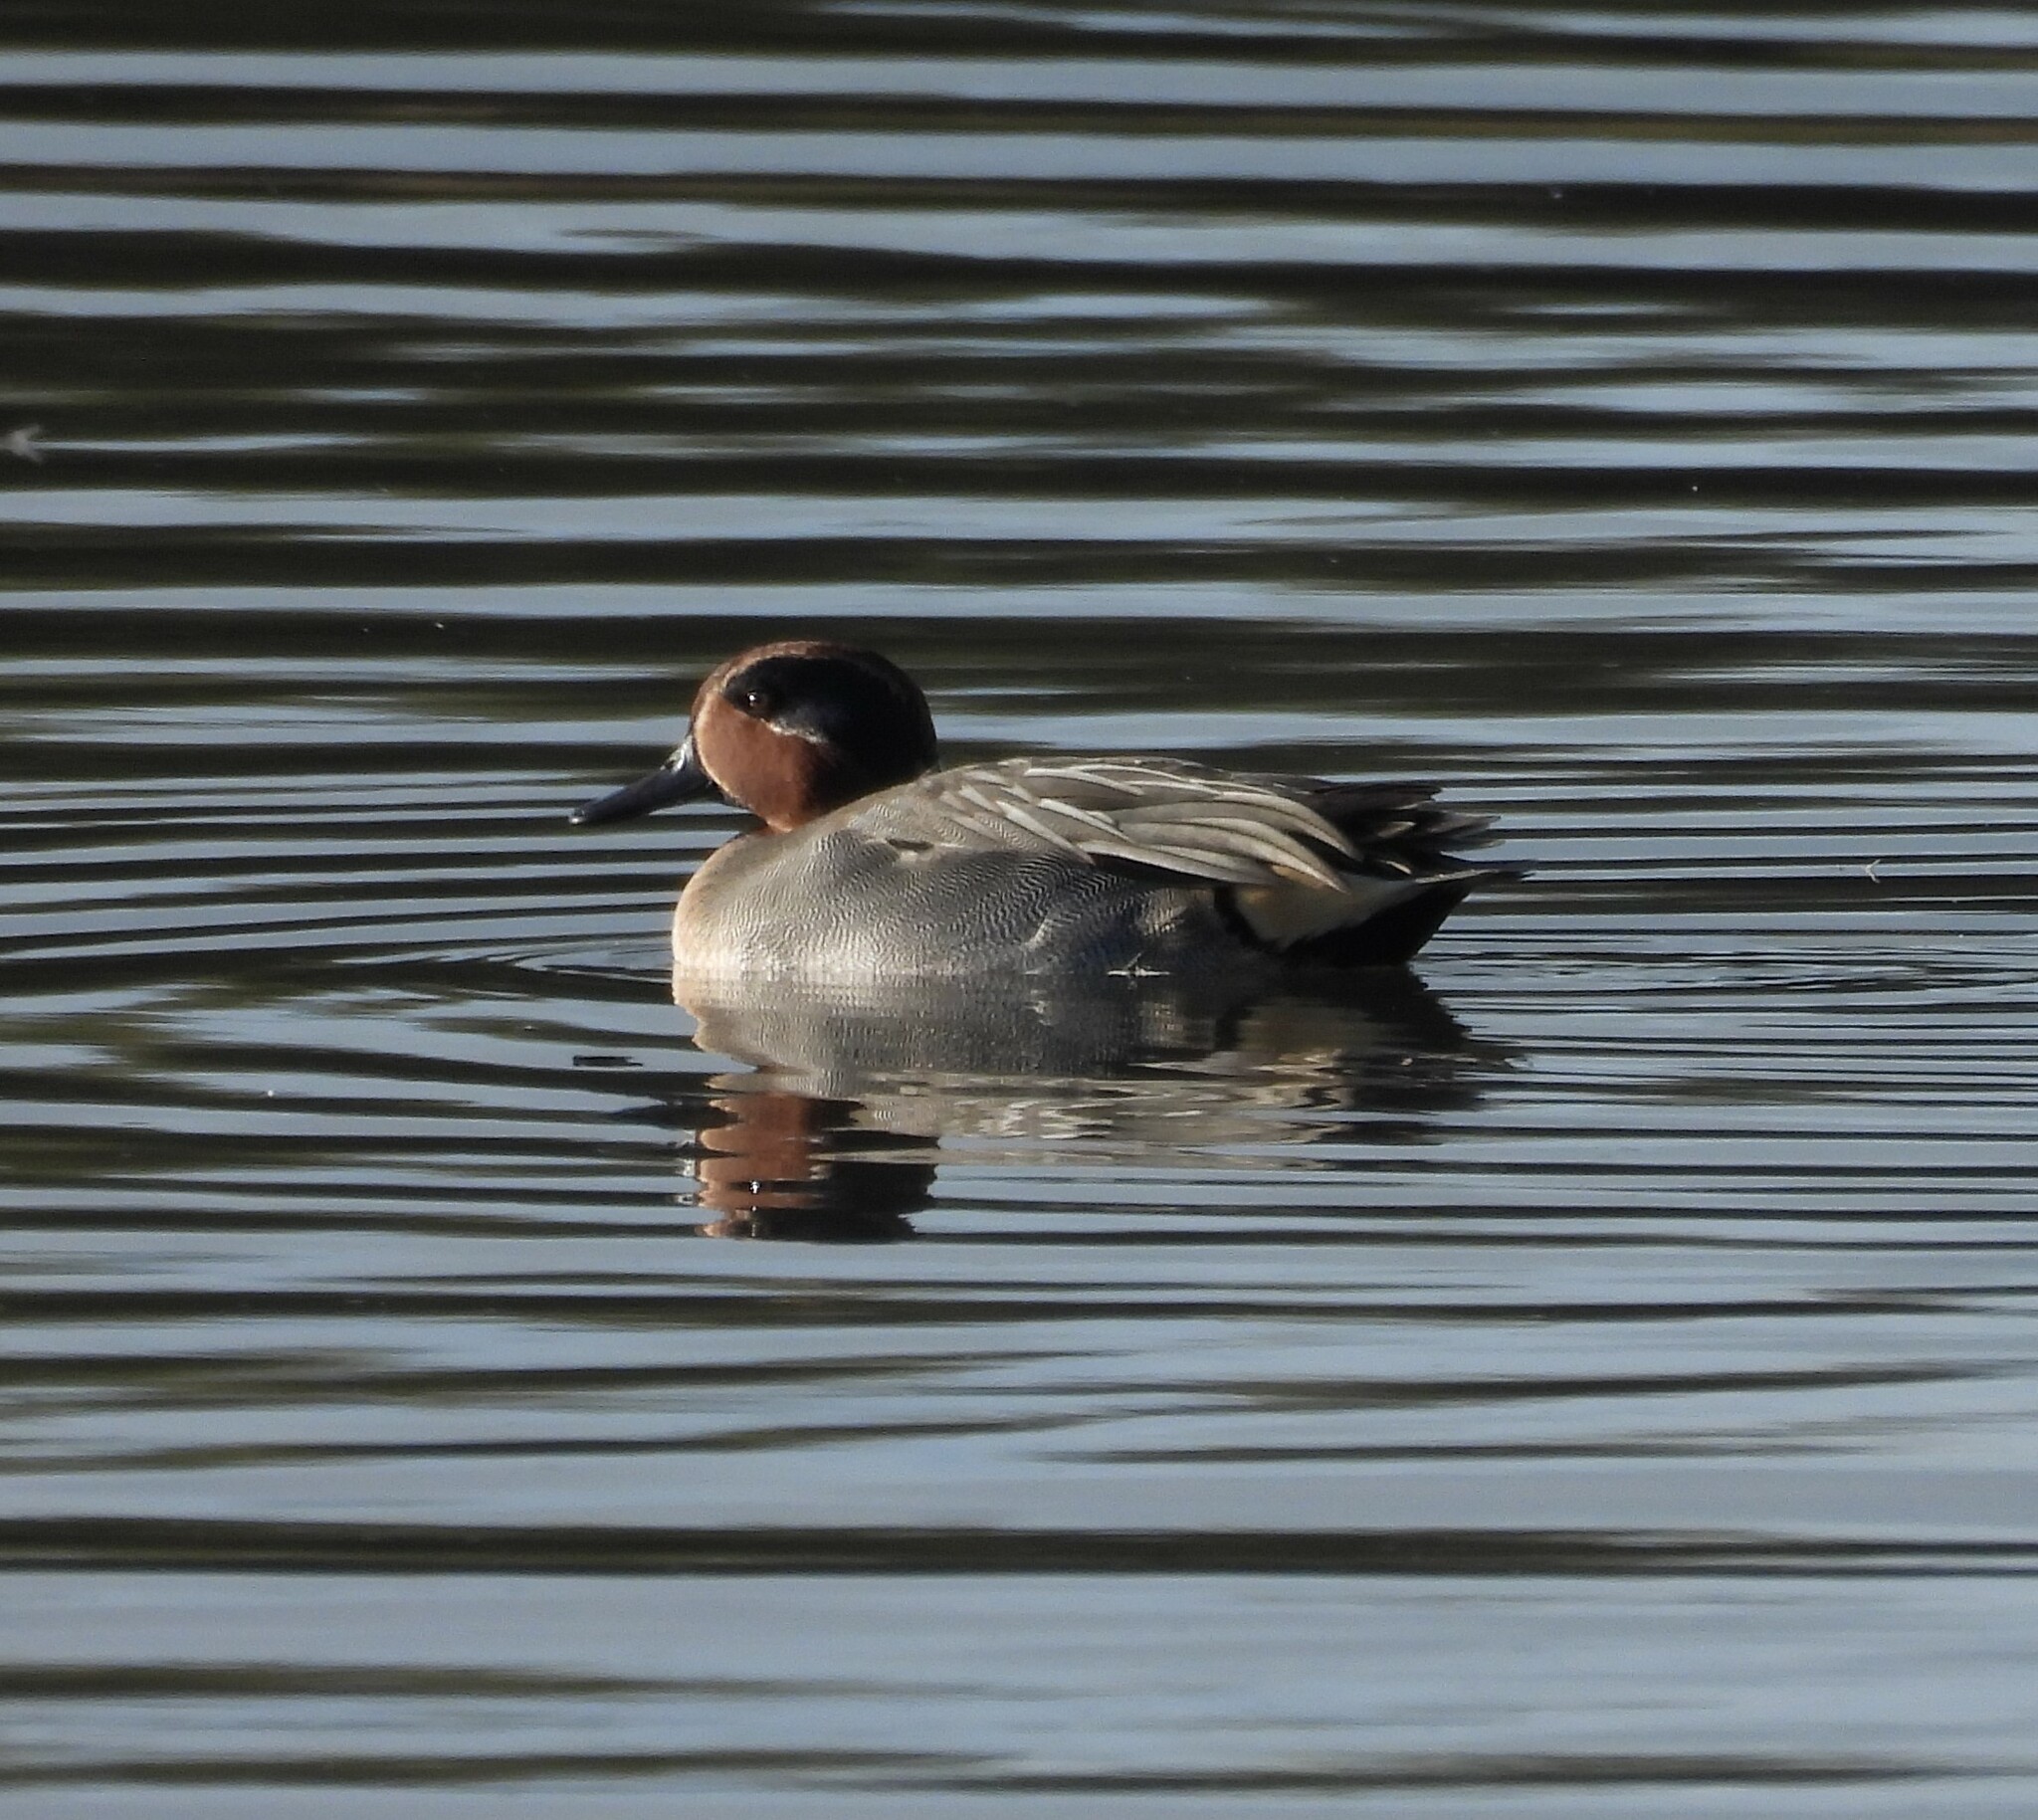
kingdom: Animalia
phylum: Chordata
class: Aves
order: Anseriformes
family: Anatidae
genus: Anas
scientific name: Anas crecca
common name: Eurasian teal
